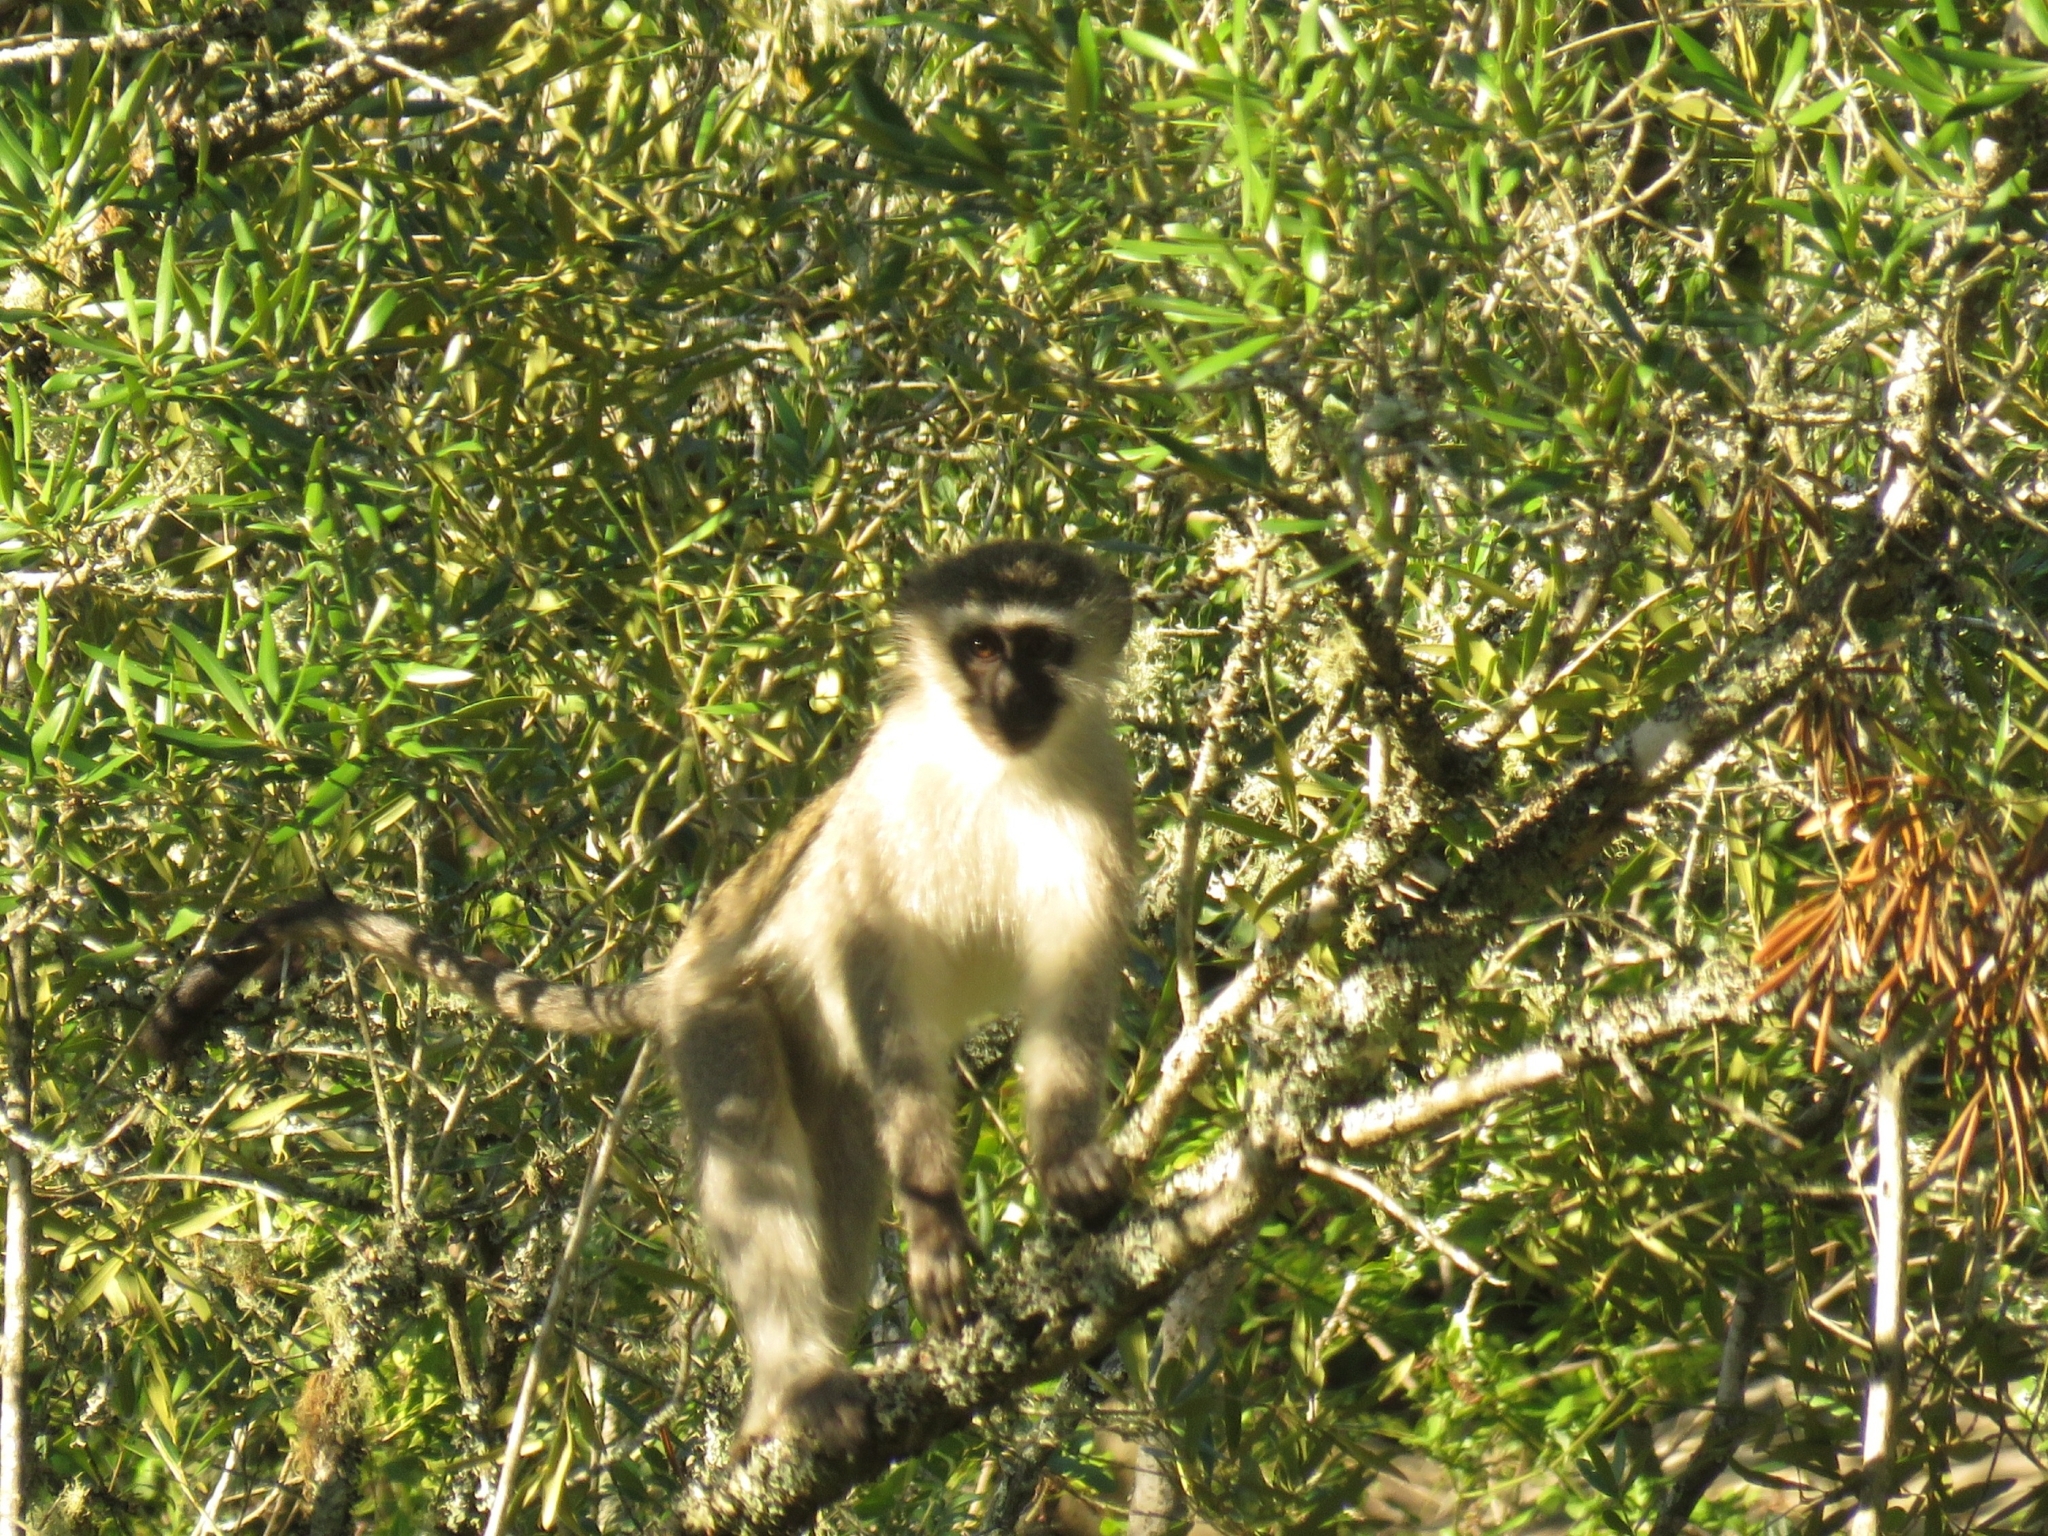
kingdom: Animalia
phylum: Chordata
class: Mammalia
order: Primates
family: Cercopithecidae
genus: Chlorocebus
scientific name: Chlorocebus pygerythrus
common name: Vervet monkey
